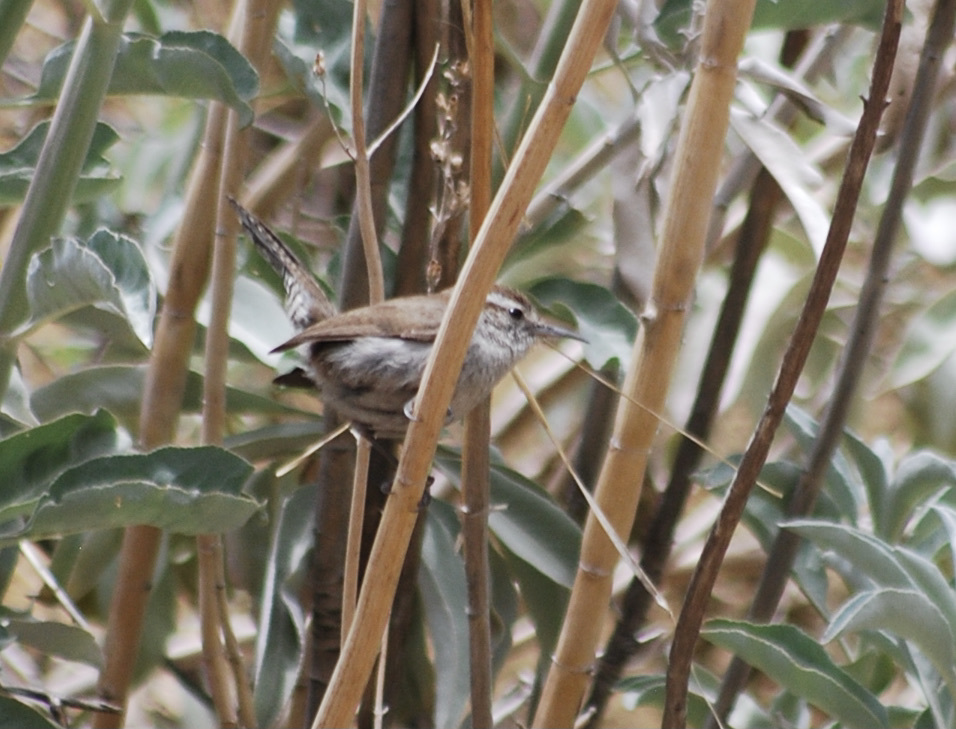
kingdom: Animalia
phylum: Chordata
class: Aves
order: Passeriformes
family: Troglodytidae
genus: Thryomanes
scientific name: Thryomanes bewickii
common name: Bewick's wren
